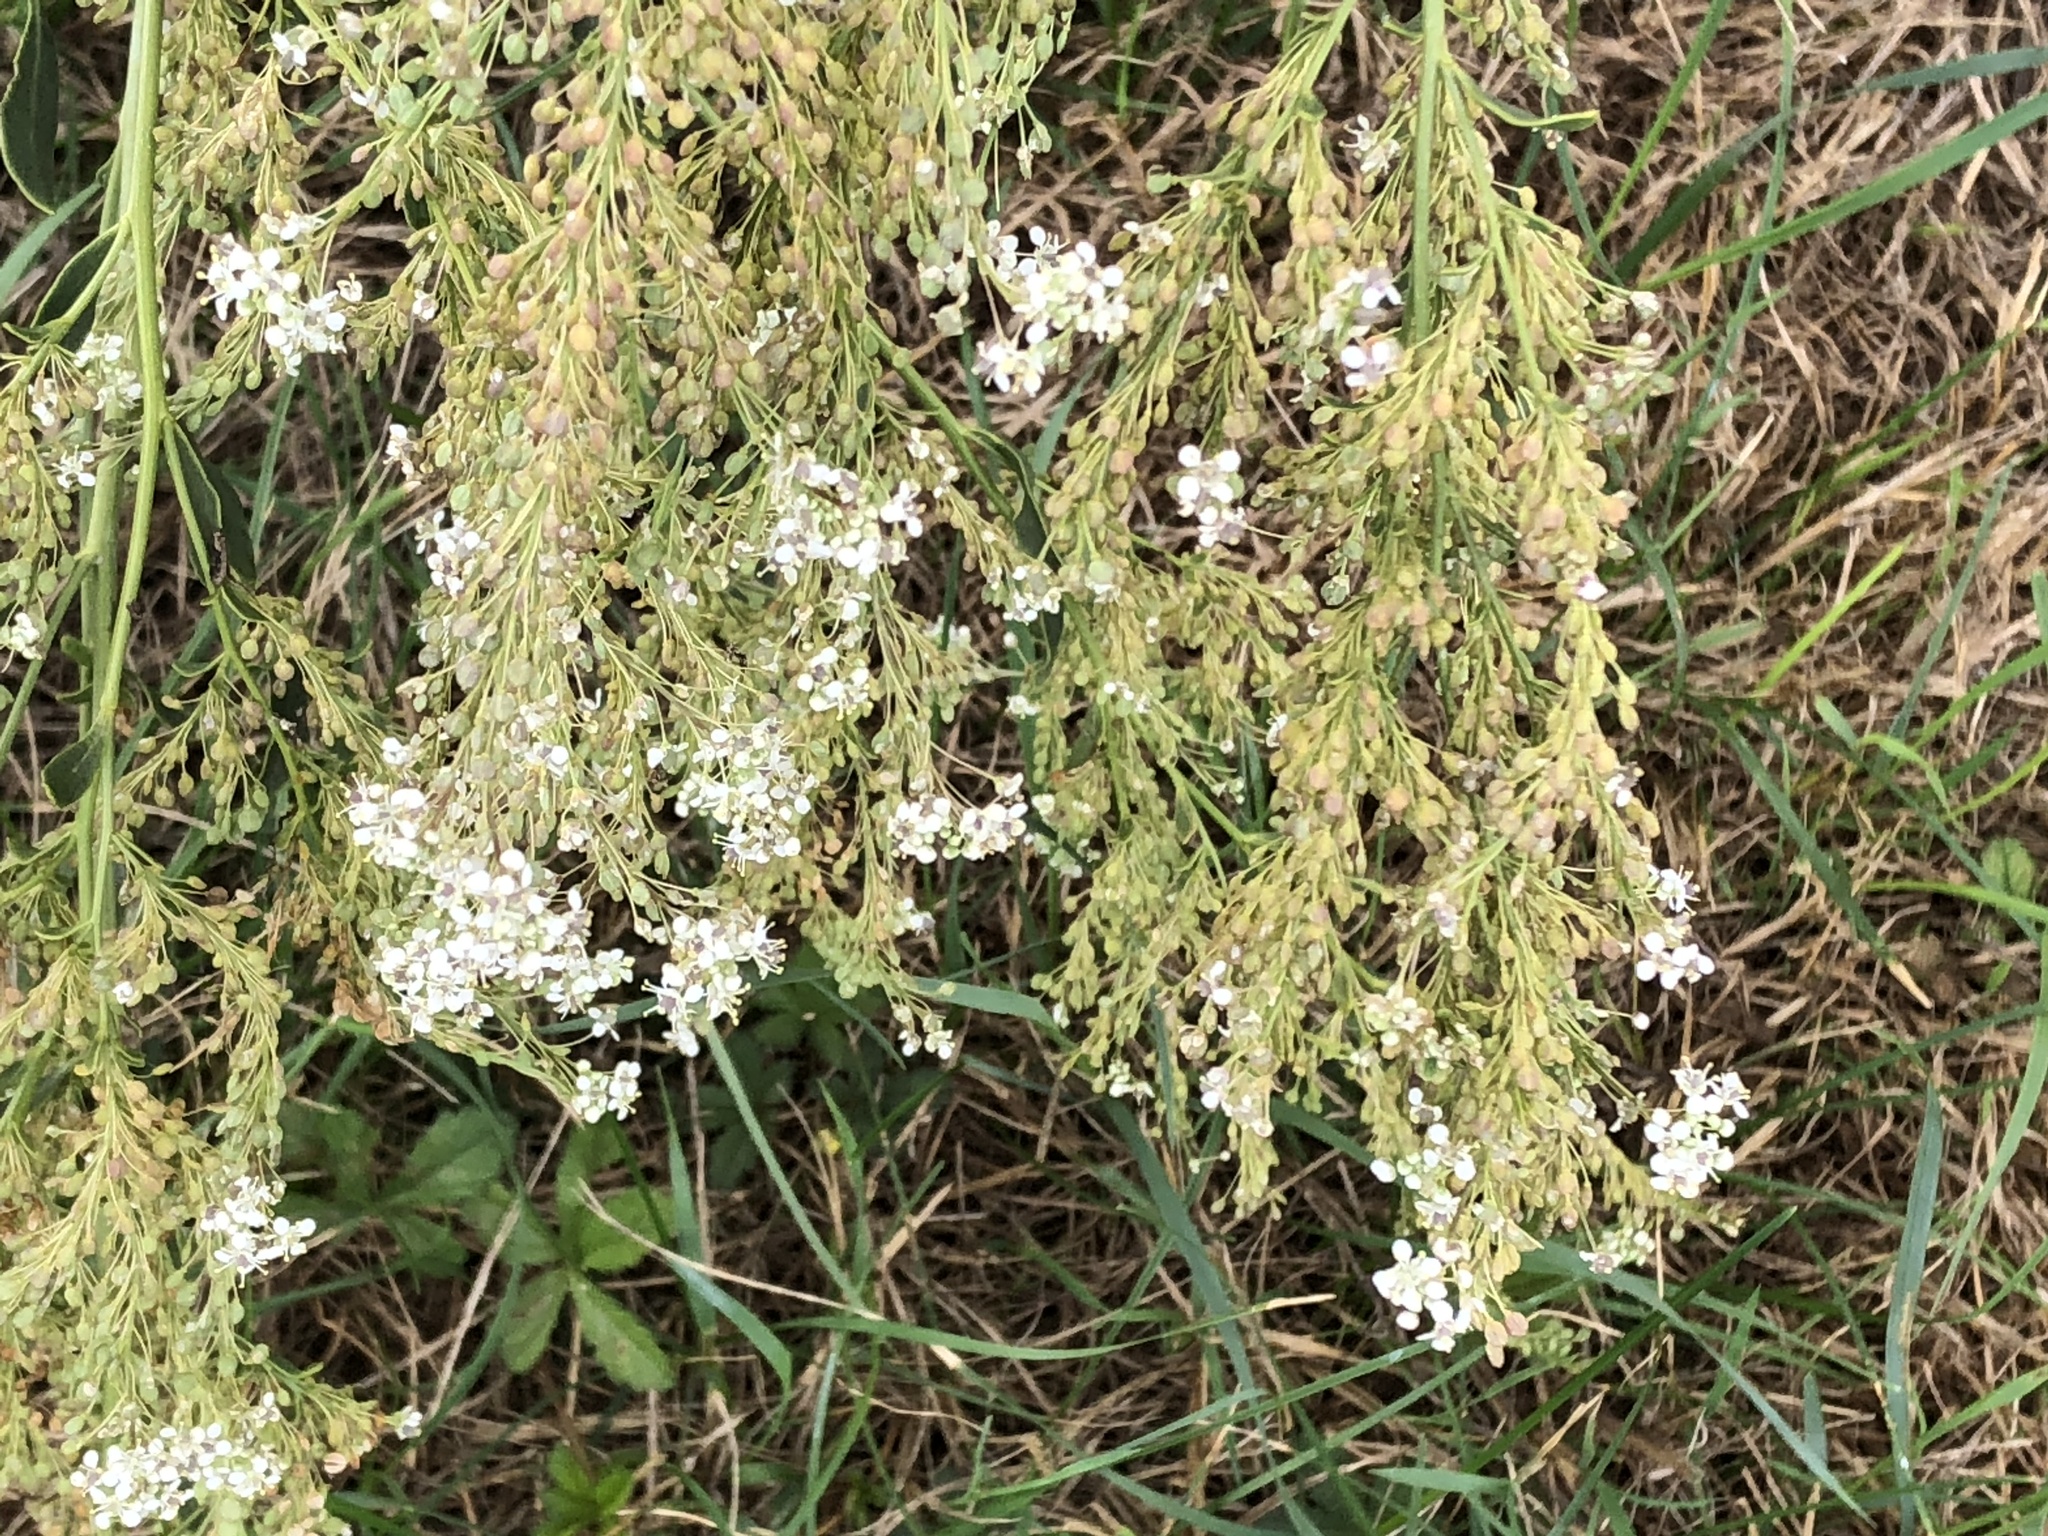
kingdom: Plantae
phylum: Tracheophyta
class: Magnoliopsida
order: Brassicales
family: Brassicaceae
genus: Lepidium
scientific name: Lepidium latifolium
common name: Dittander
